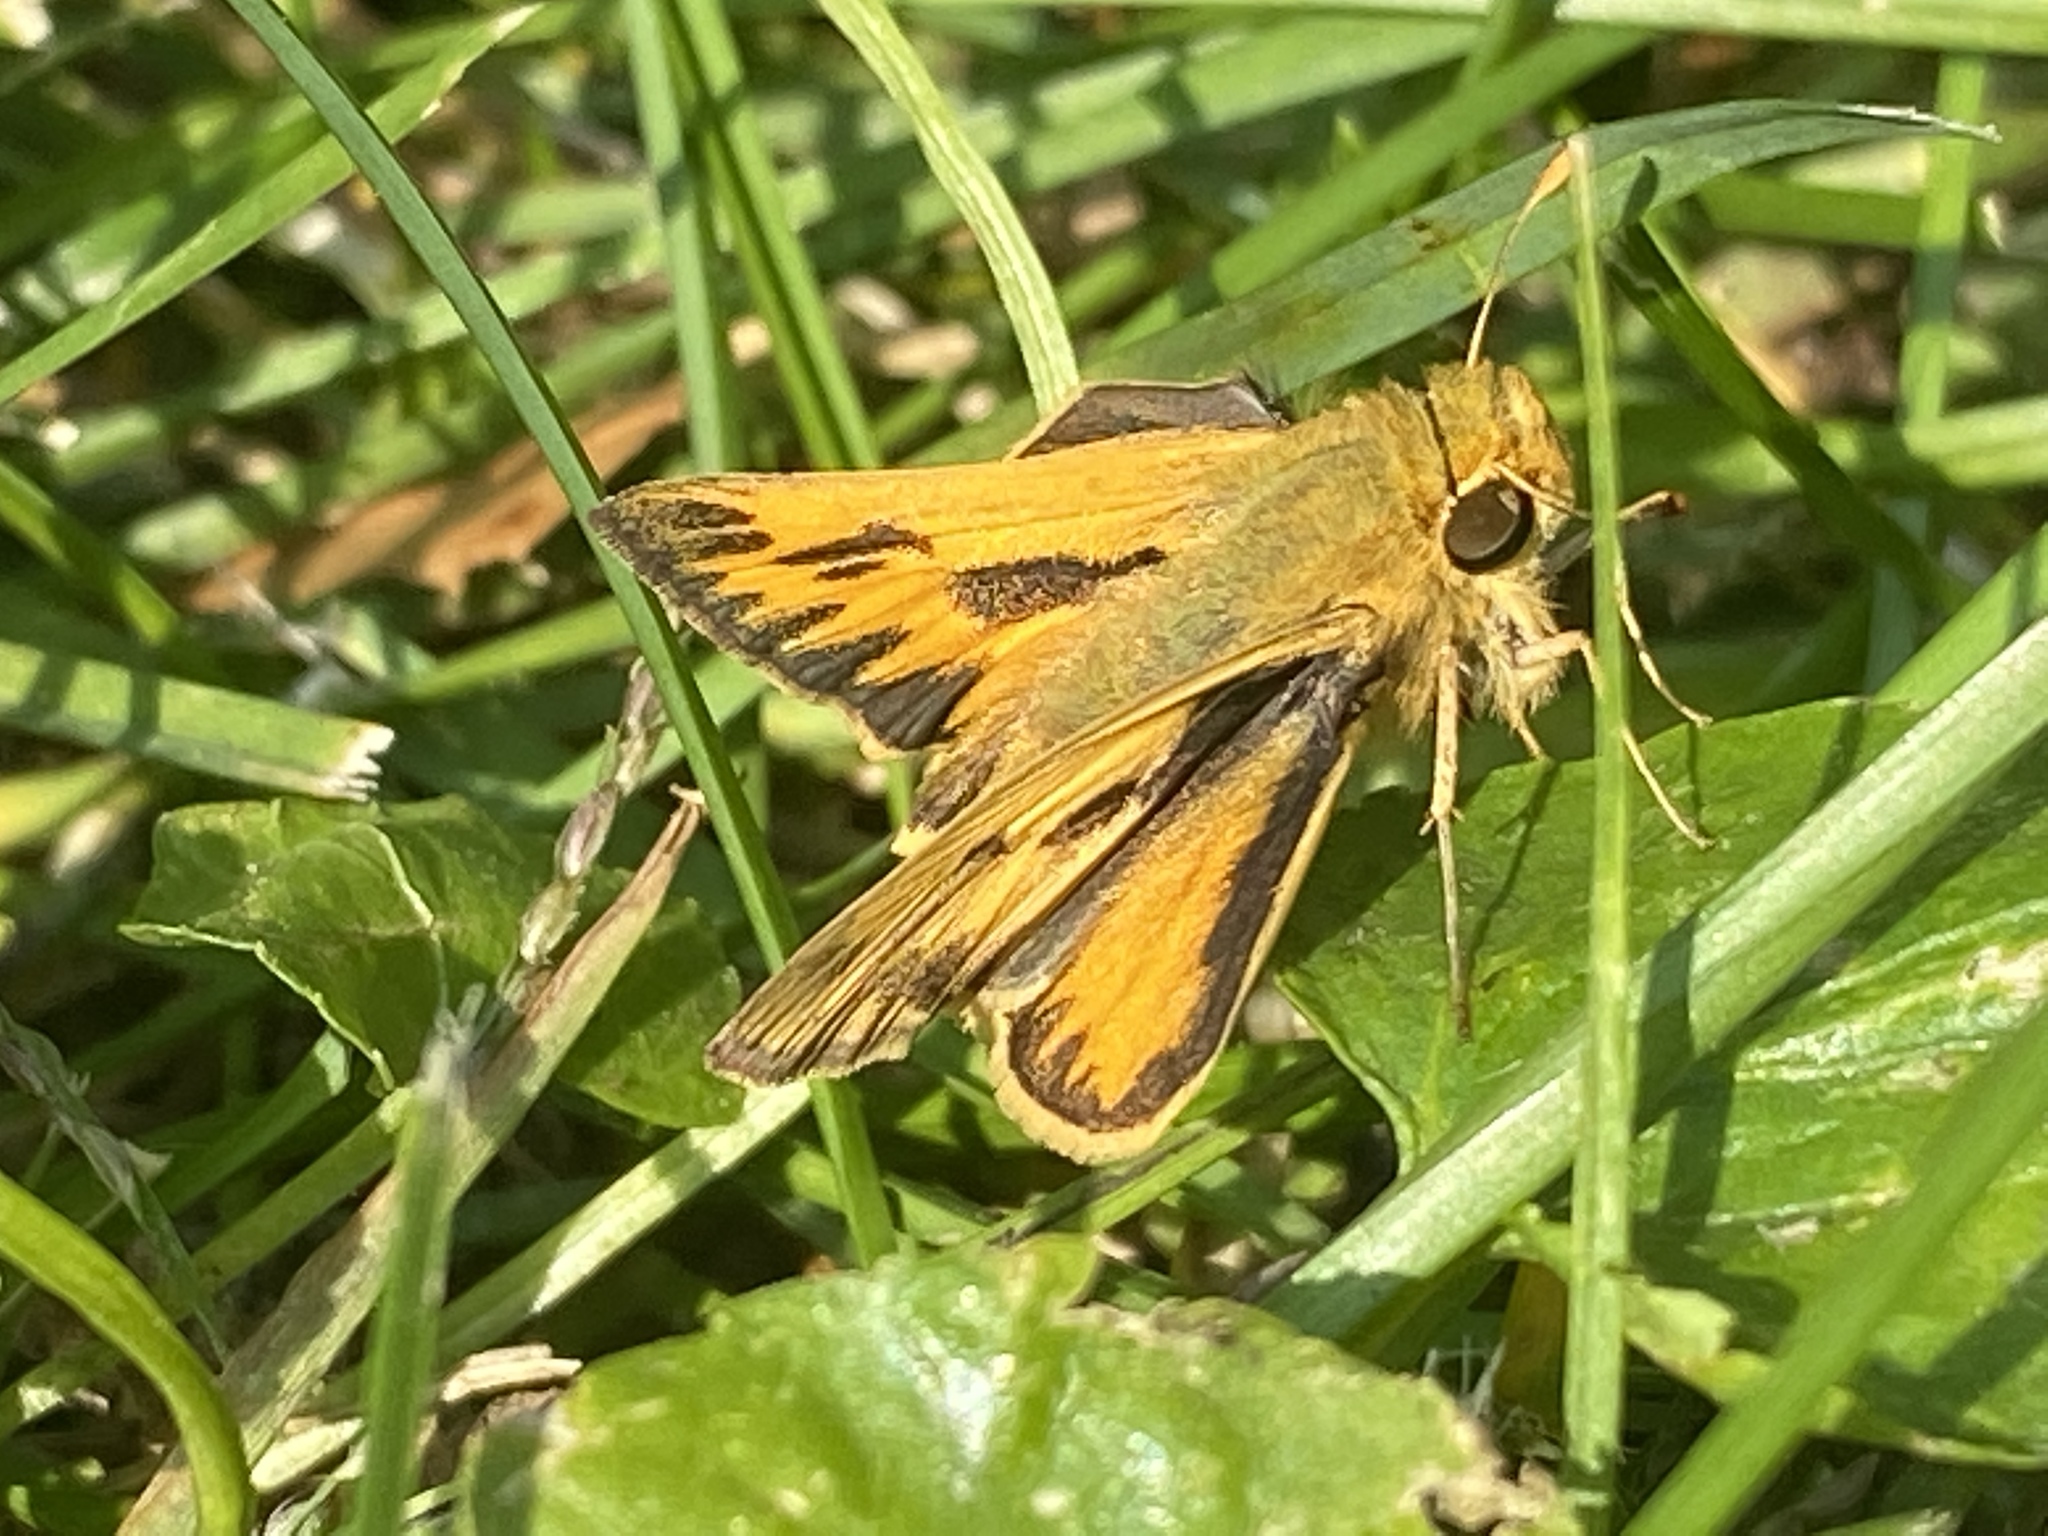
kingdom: Animalia
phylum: Arthropoda
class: Insecta
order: Lepidoptera
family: Hesperiidae
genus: Hylephila
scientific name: Hylephila phyleus
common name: Fiery skipper
